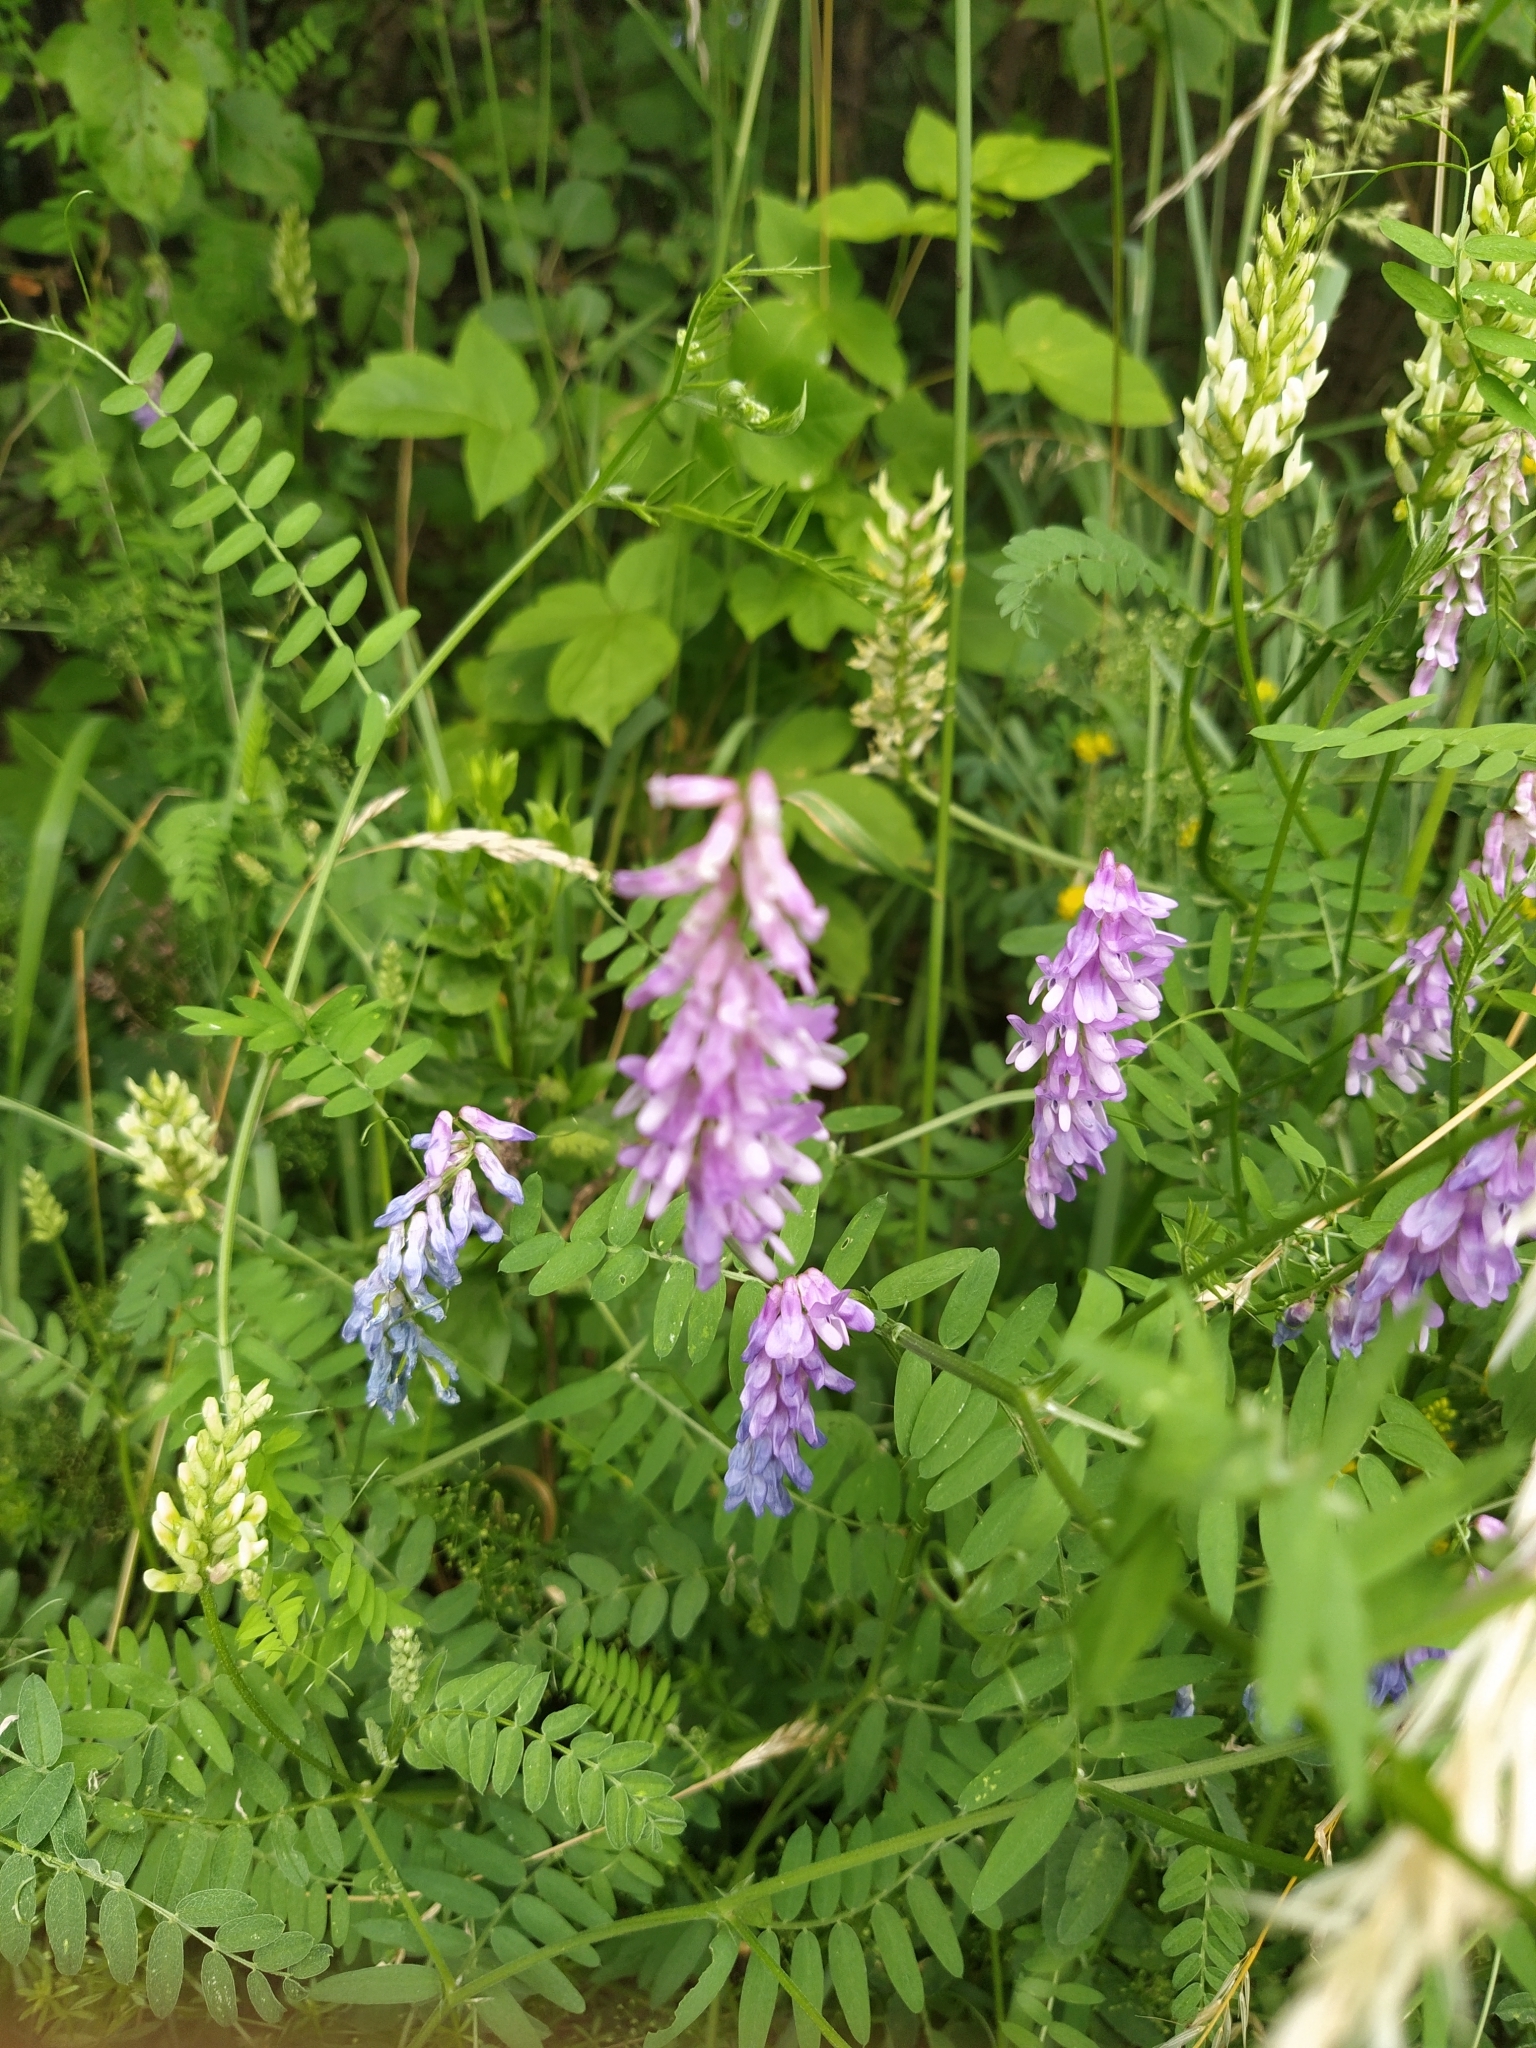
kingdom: Plantae
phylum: Tracheophyta
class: Magnoliopsida
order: Fabales
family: Fabaceae
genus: Vicia
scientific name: Vicia cracca
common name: Bird vetch
